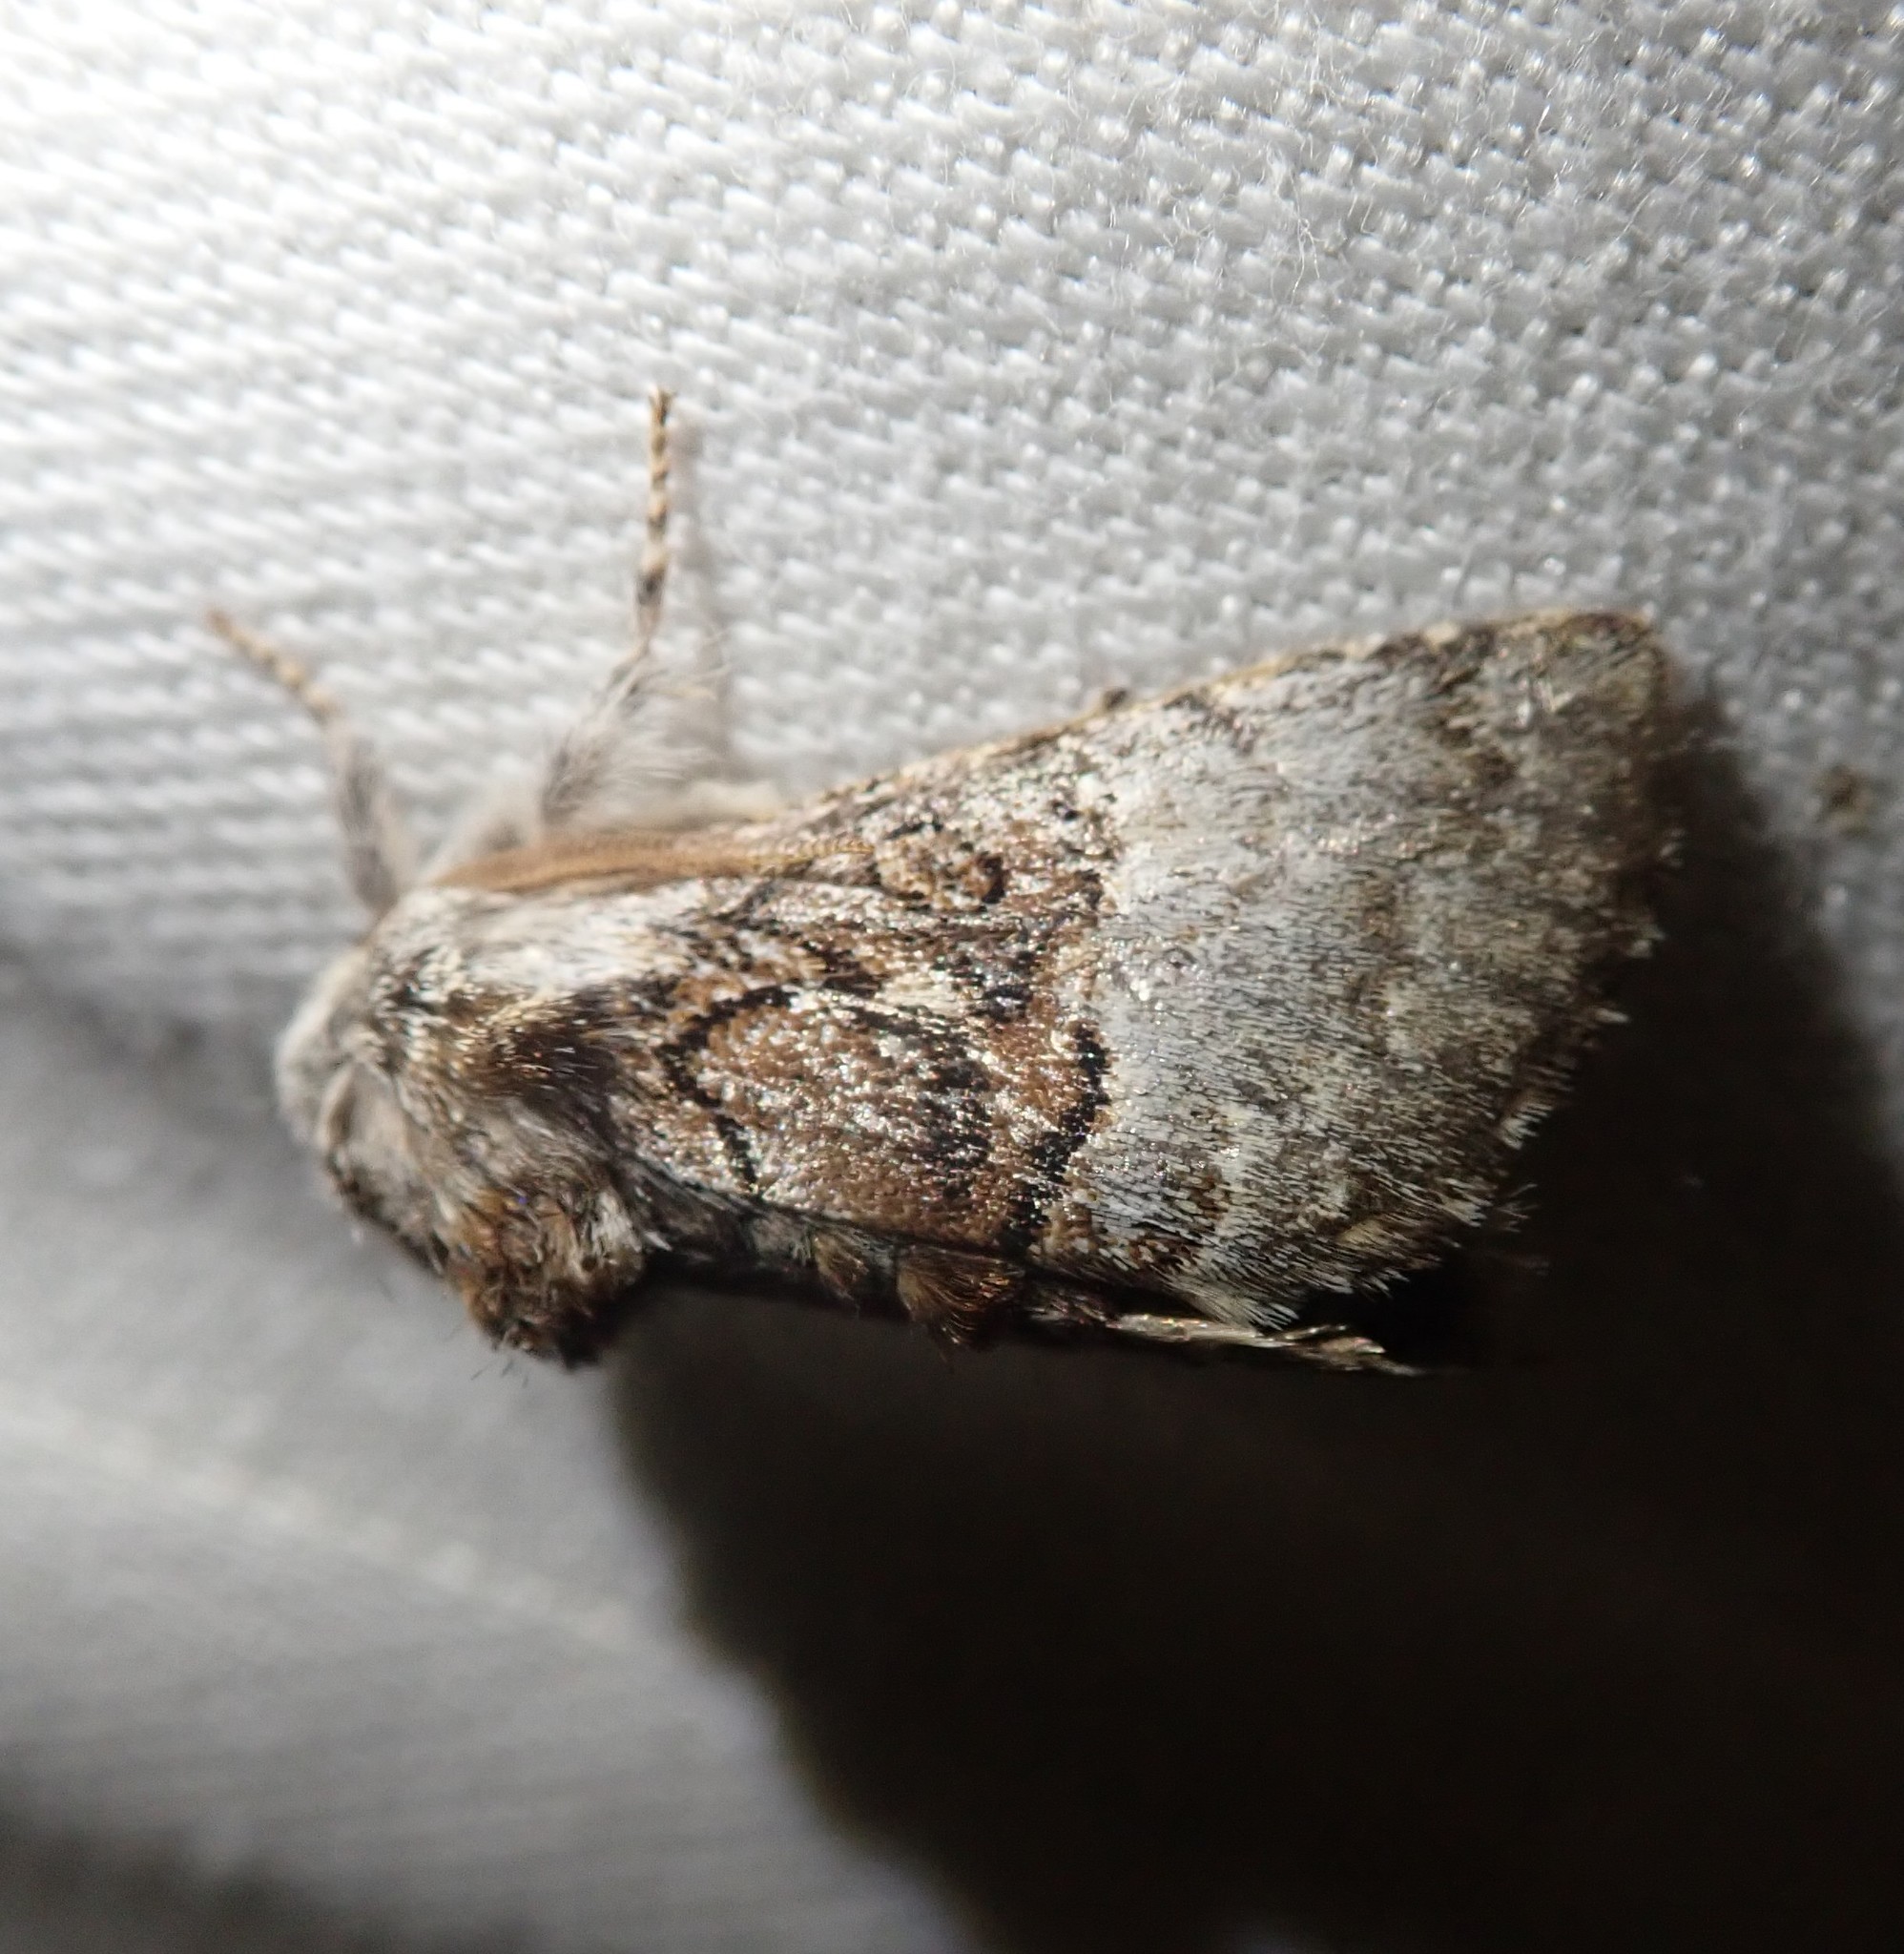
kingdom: Animalia
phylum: Arthropoda
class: Insecta
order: Lepidoptera
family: Noctuidae
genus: Colocasia
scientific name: Colocasia coryli
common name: Nut-tree tussock
